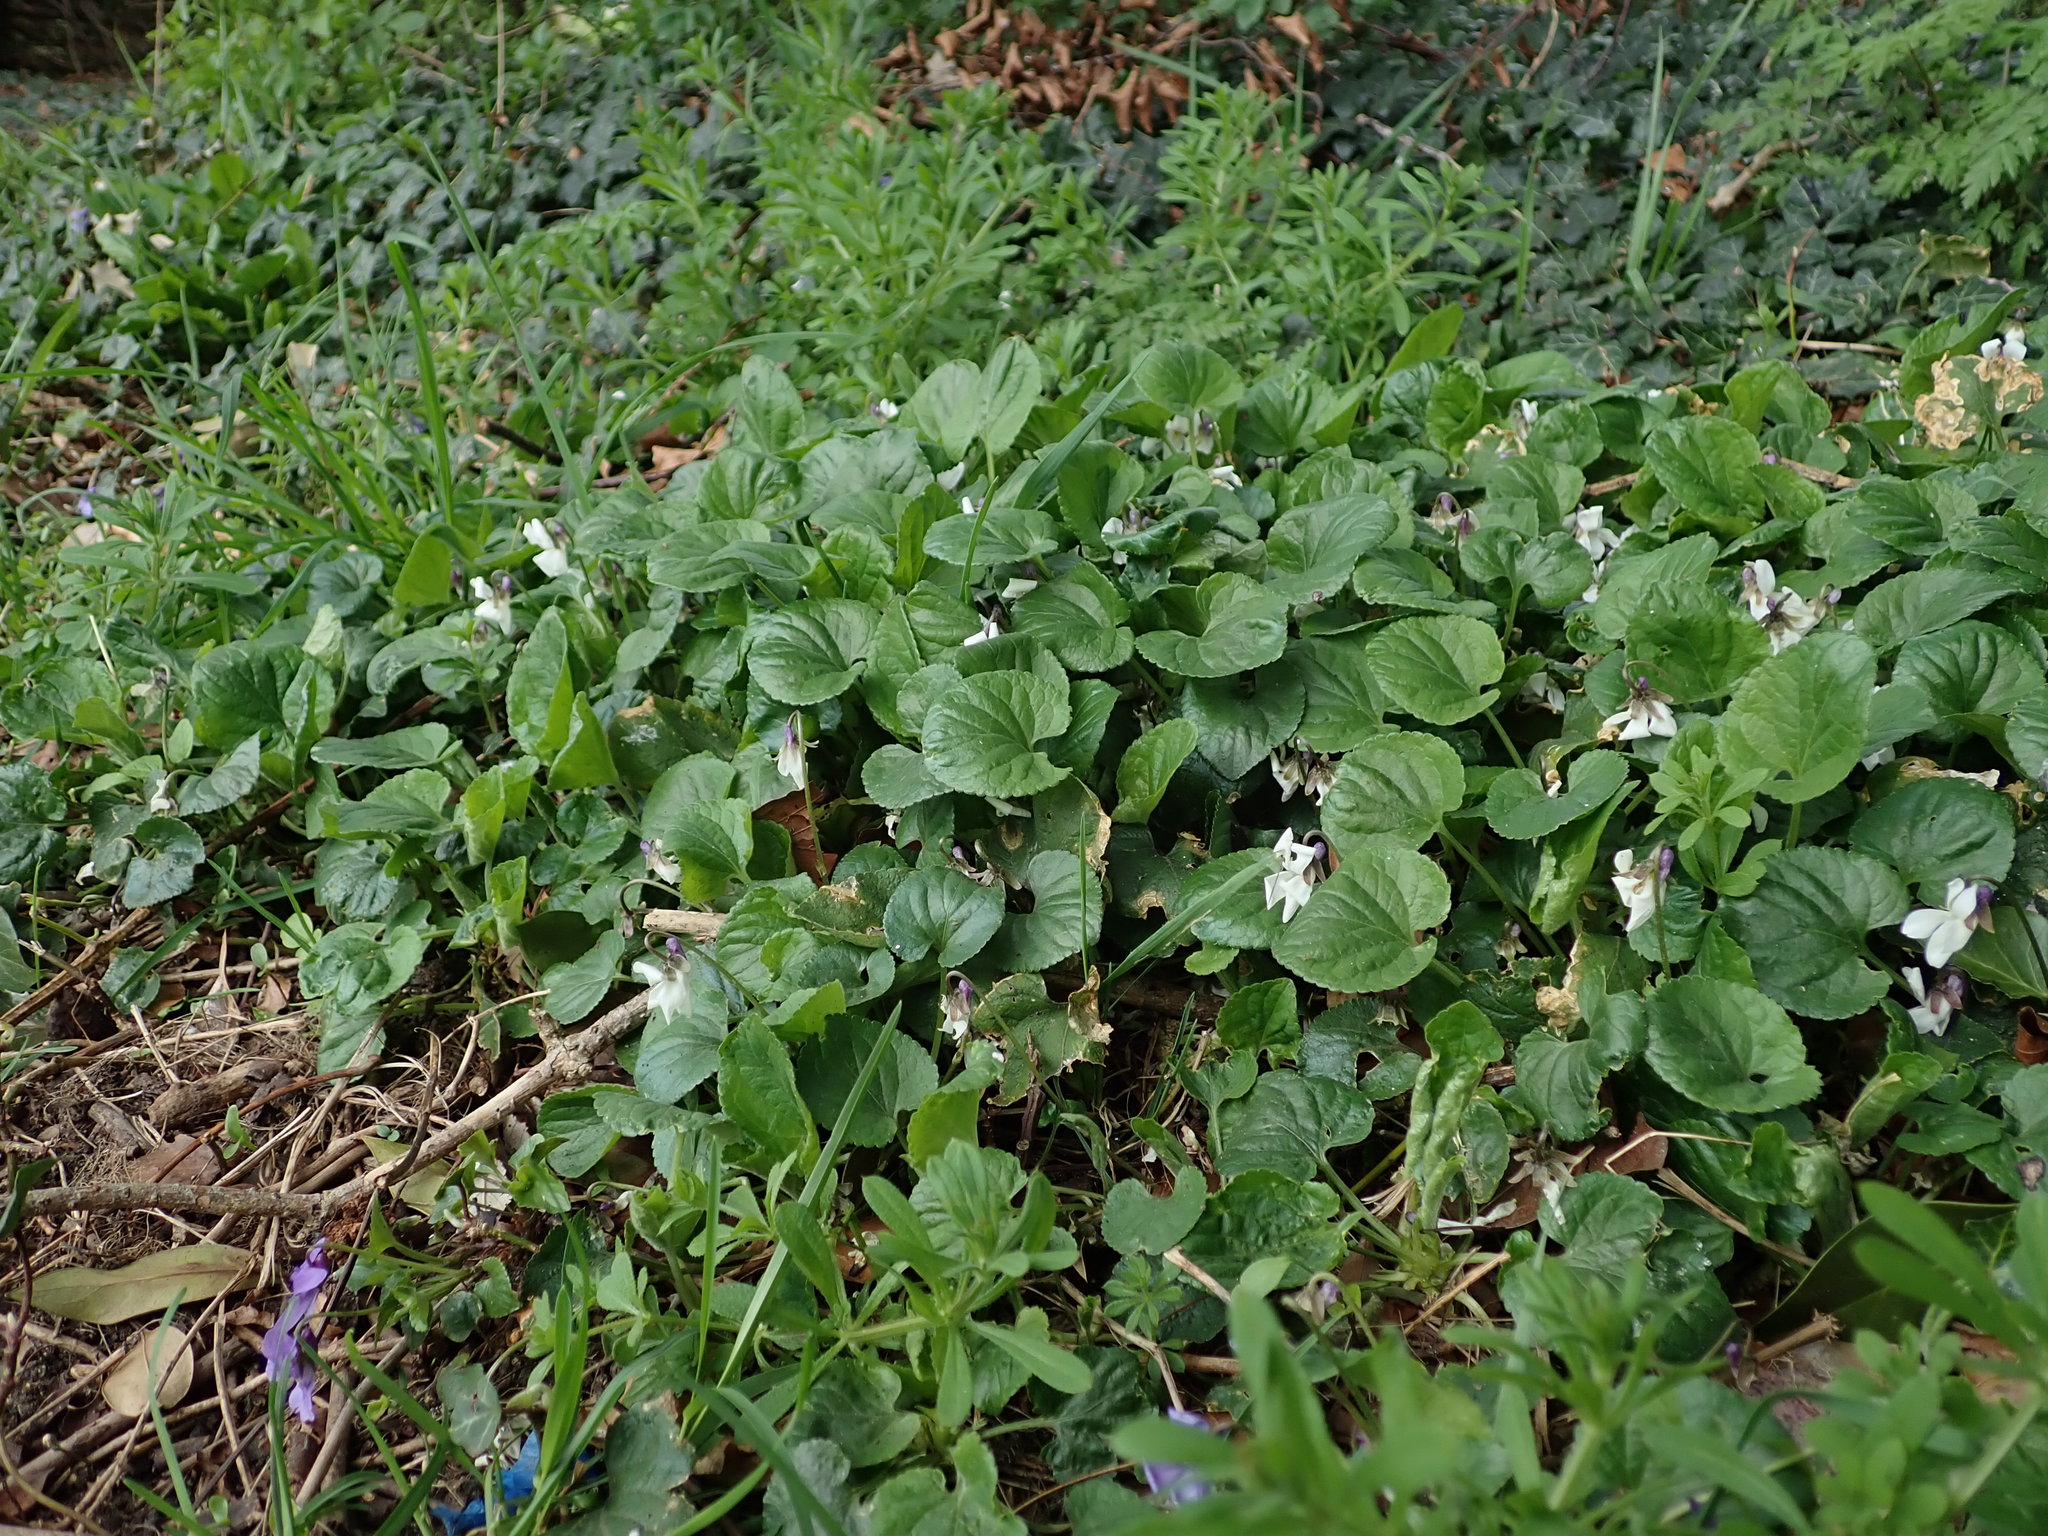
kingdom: Plantae
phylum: Tracheophyta
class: Magnoliopsida
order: Malpighiales
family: Violaceae
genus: Viola
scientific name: Viola odorata
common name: Sweet violet
